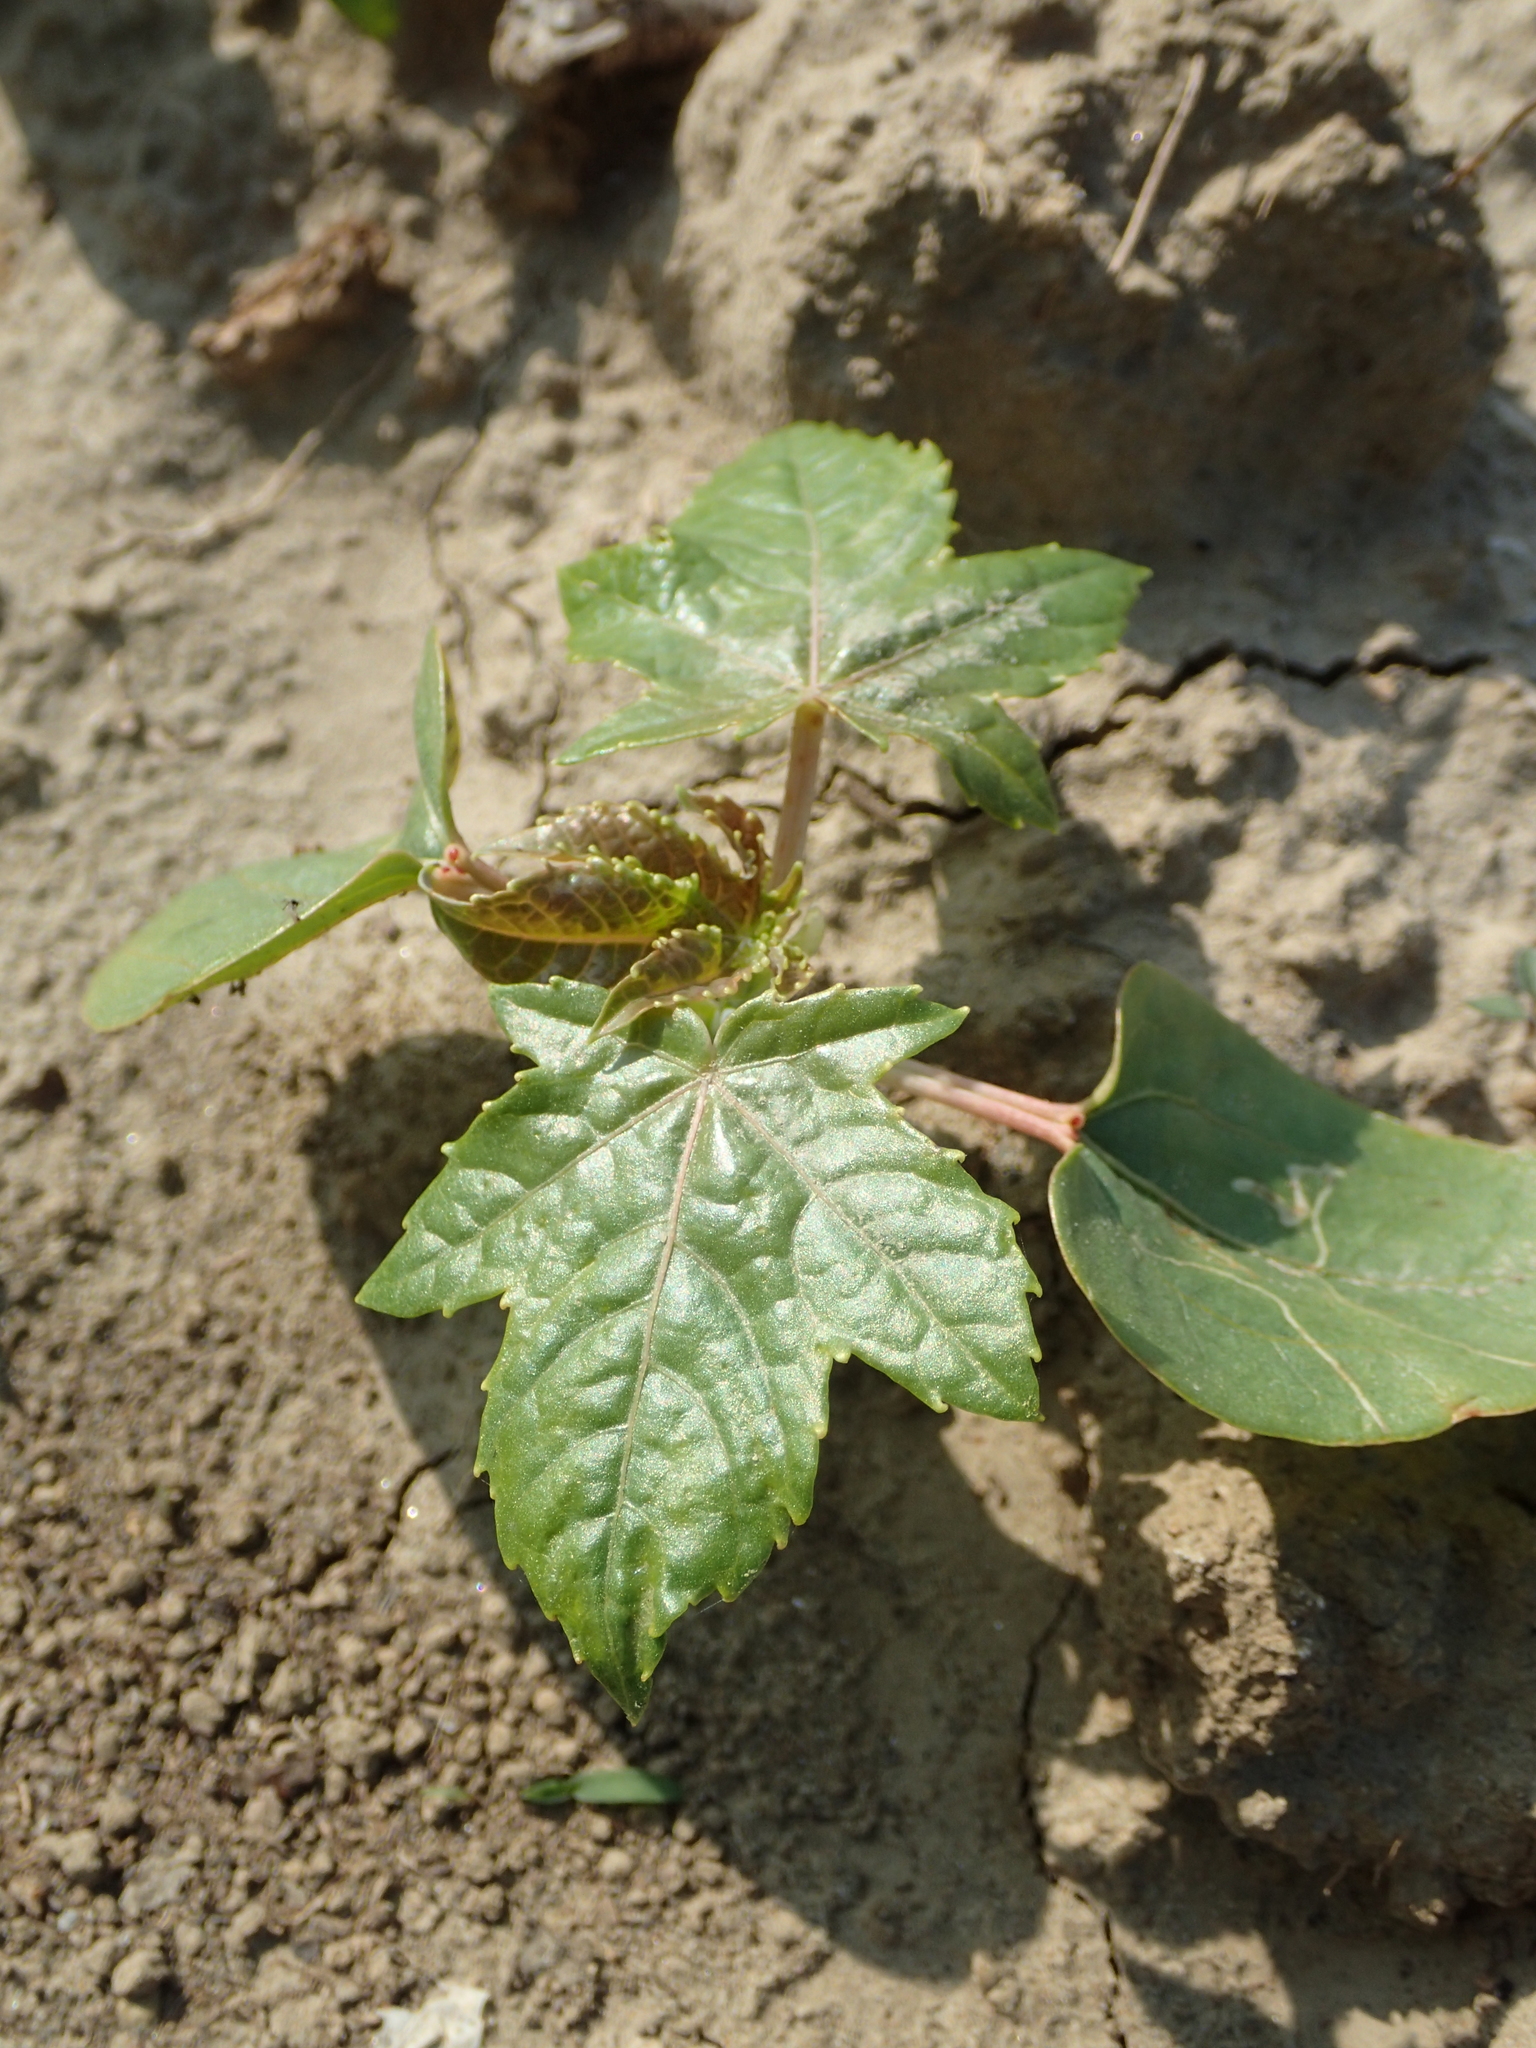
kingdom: Plantae
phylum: Tracheophyta
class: Magnoliopsida
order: Malpighiales
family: Euphorbiaceae
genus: Ricinus
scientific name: Ricinus communis
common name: Castor-oil-plant
